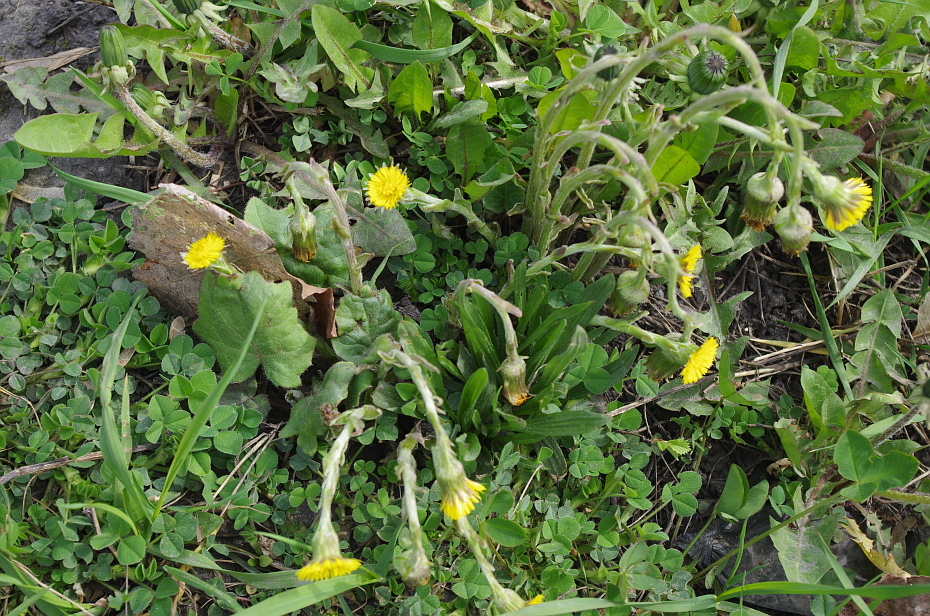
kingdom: Plantae
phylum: Tracheophyta
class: Magnoliopsida
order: Asterales
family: Asteraceae
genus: Tussilago
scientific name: Tussilago farfara
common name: Coltsfoot
